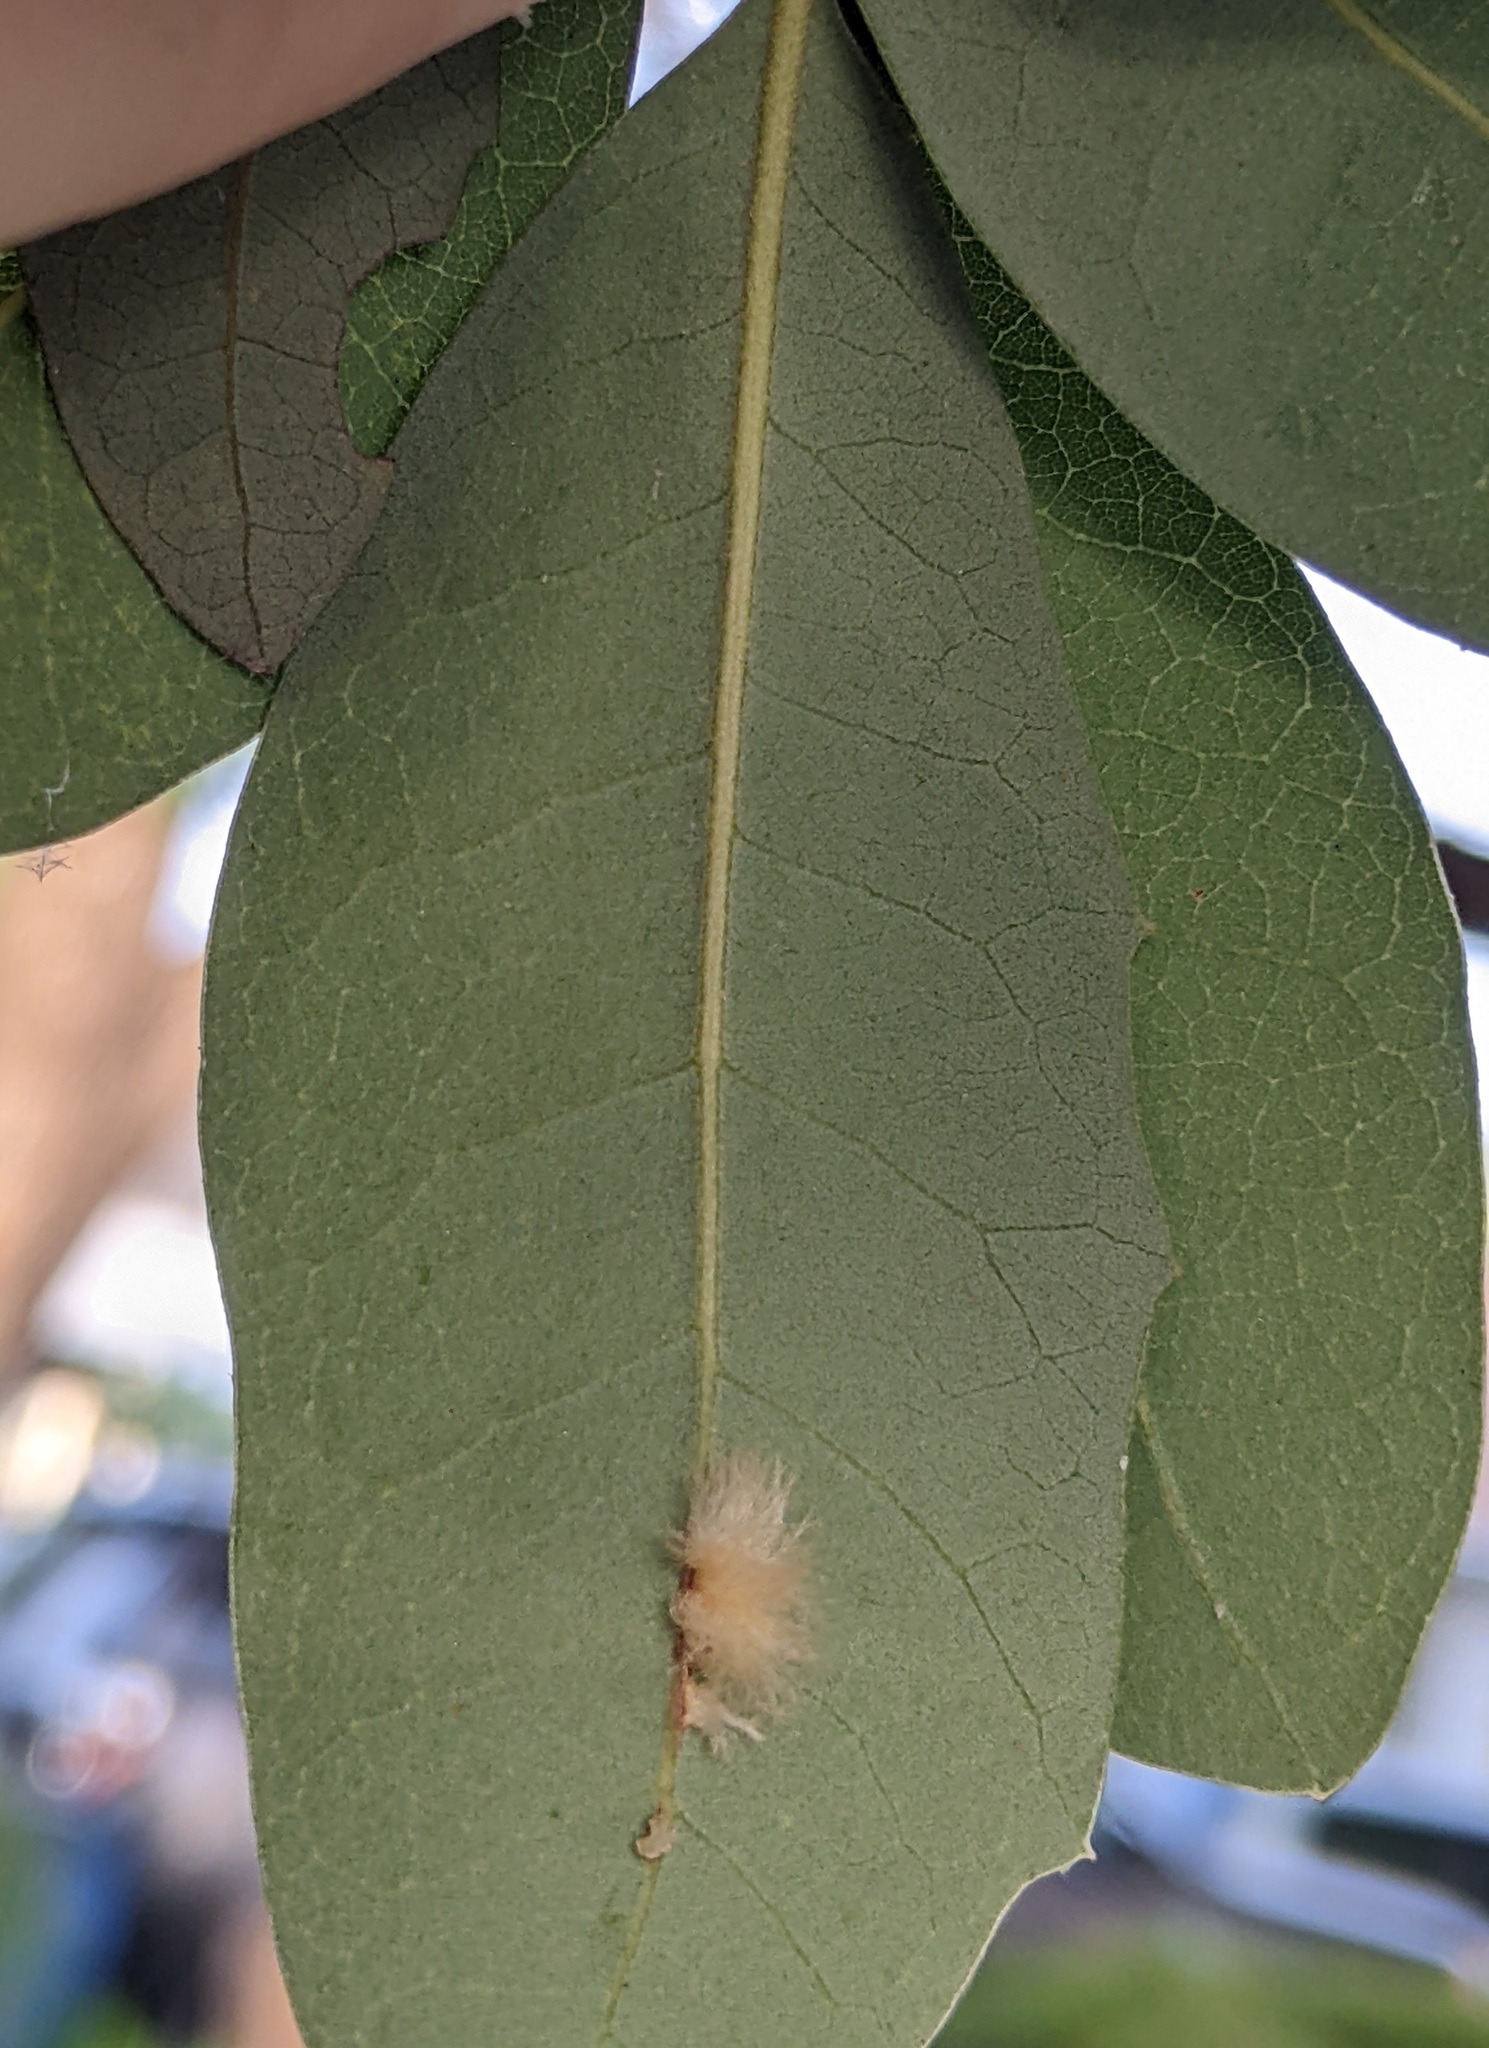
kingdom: Animalia
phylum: Arthropoda
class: Insecta
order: Hymenoptera
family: Cynipidae
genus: Andricus
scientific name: Andricus Druon quercuslanigerum
